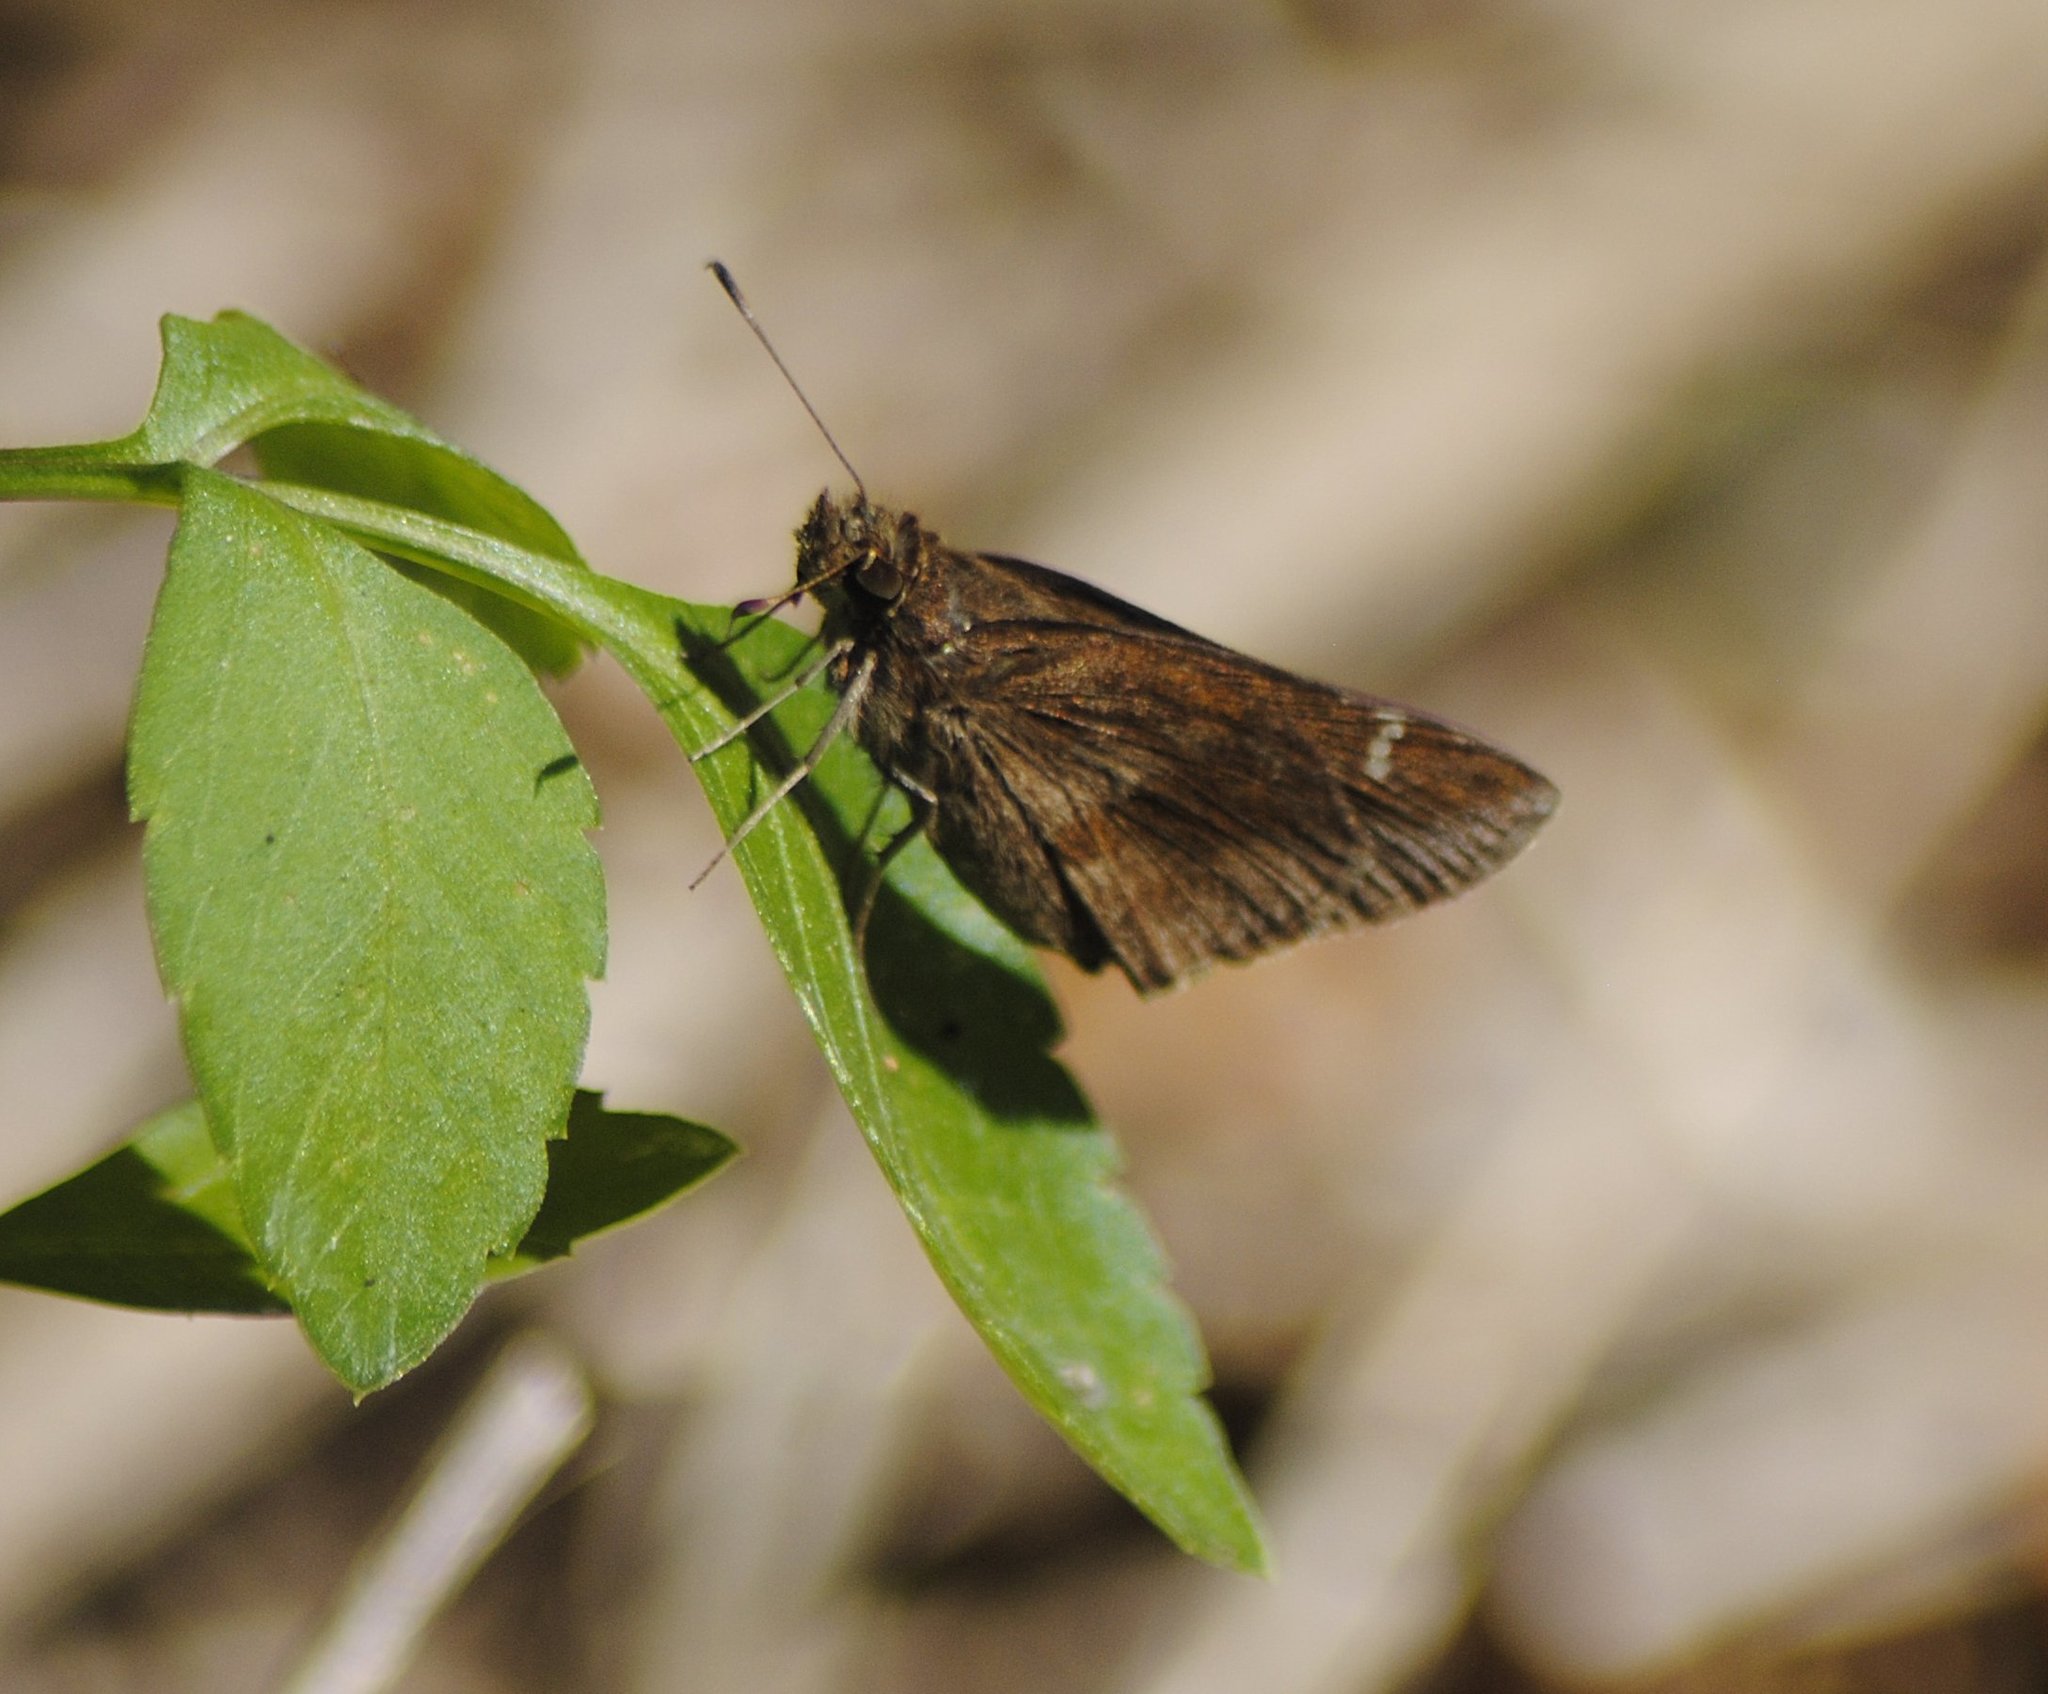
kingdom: Animalia
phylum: Arthropoda
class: Insecta
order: Lepidoptera
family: Hesperiidae
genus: Lerema
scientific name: Lerema accius
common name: Clouded skipper
